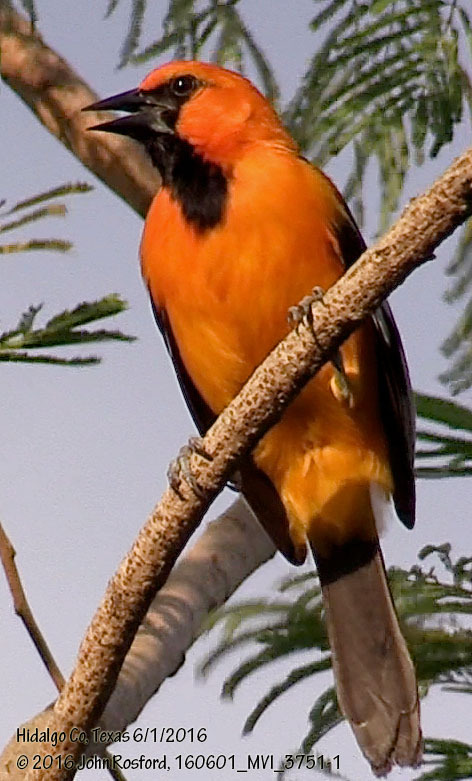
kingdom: Animalia
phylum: Chordata
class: Aves
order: Passeriformes
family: Icteridae
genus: Icterus
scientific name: Icterus gularis
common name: Altamira oriole
